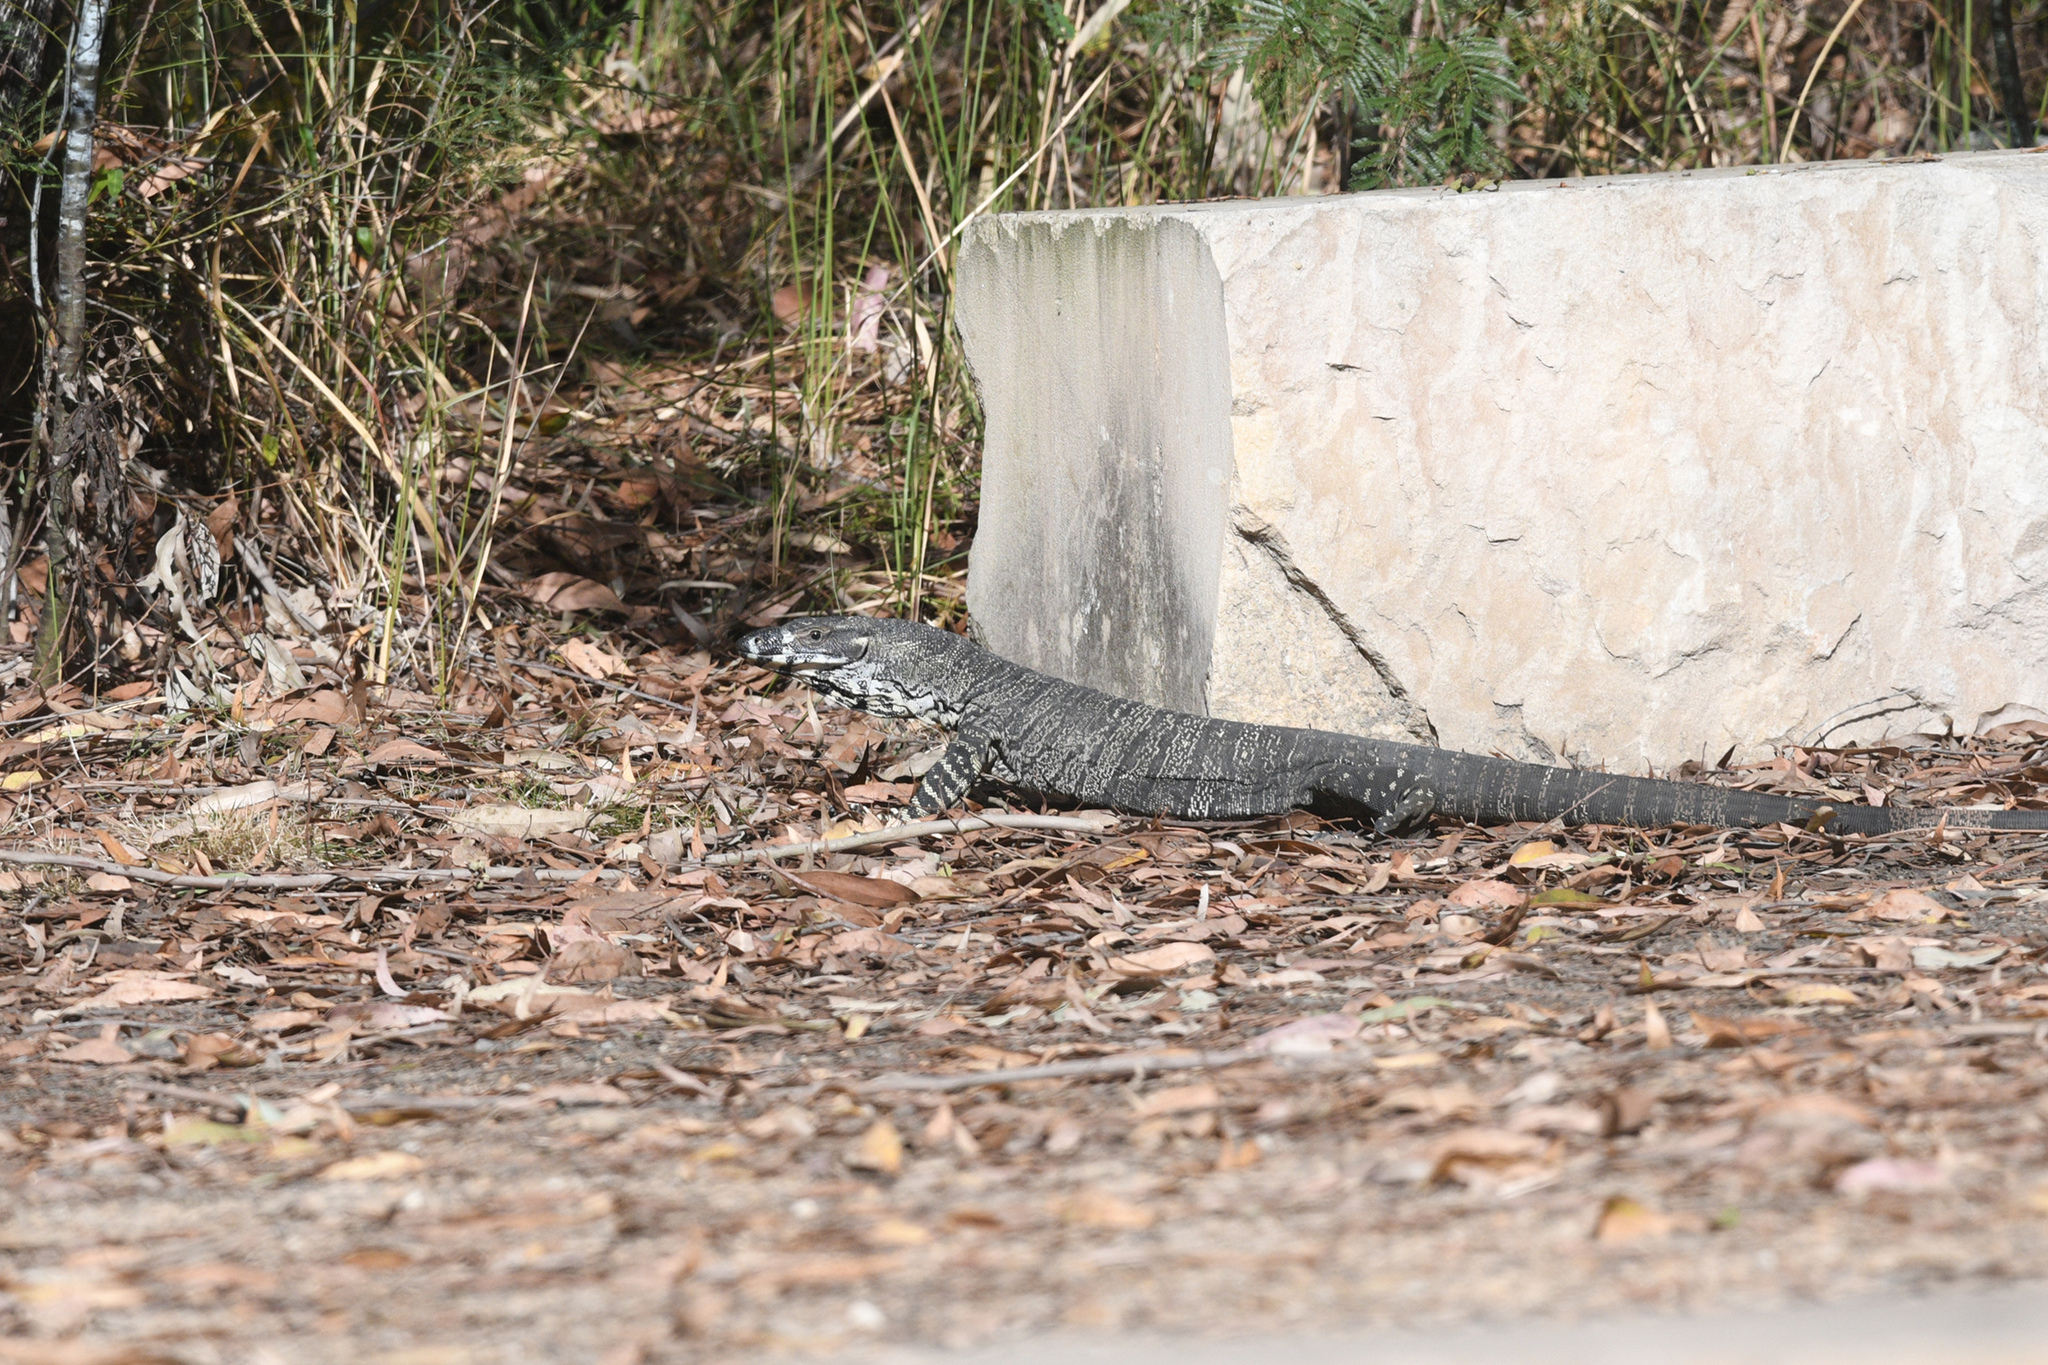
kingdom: Animalia
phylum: Chordata
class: Squamata
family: Varanidae
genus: Varanus
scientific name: Varanus varius
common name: Lace monitor
